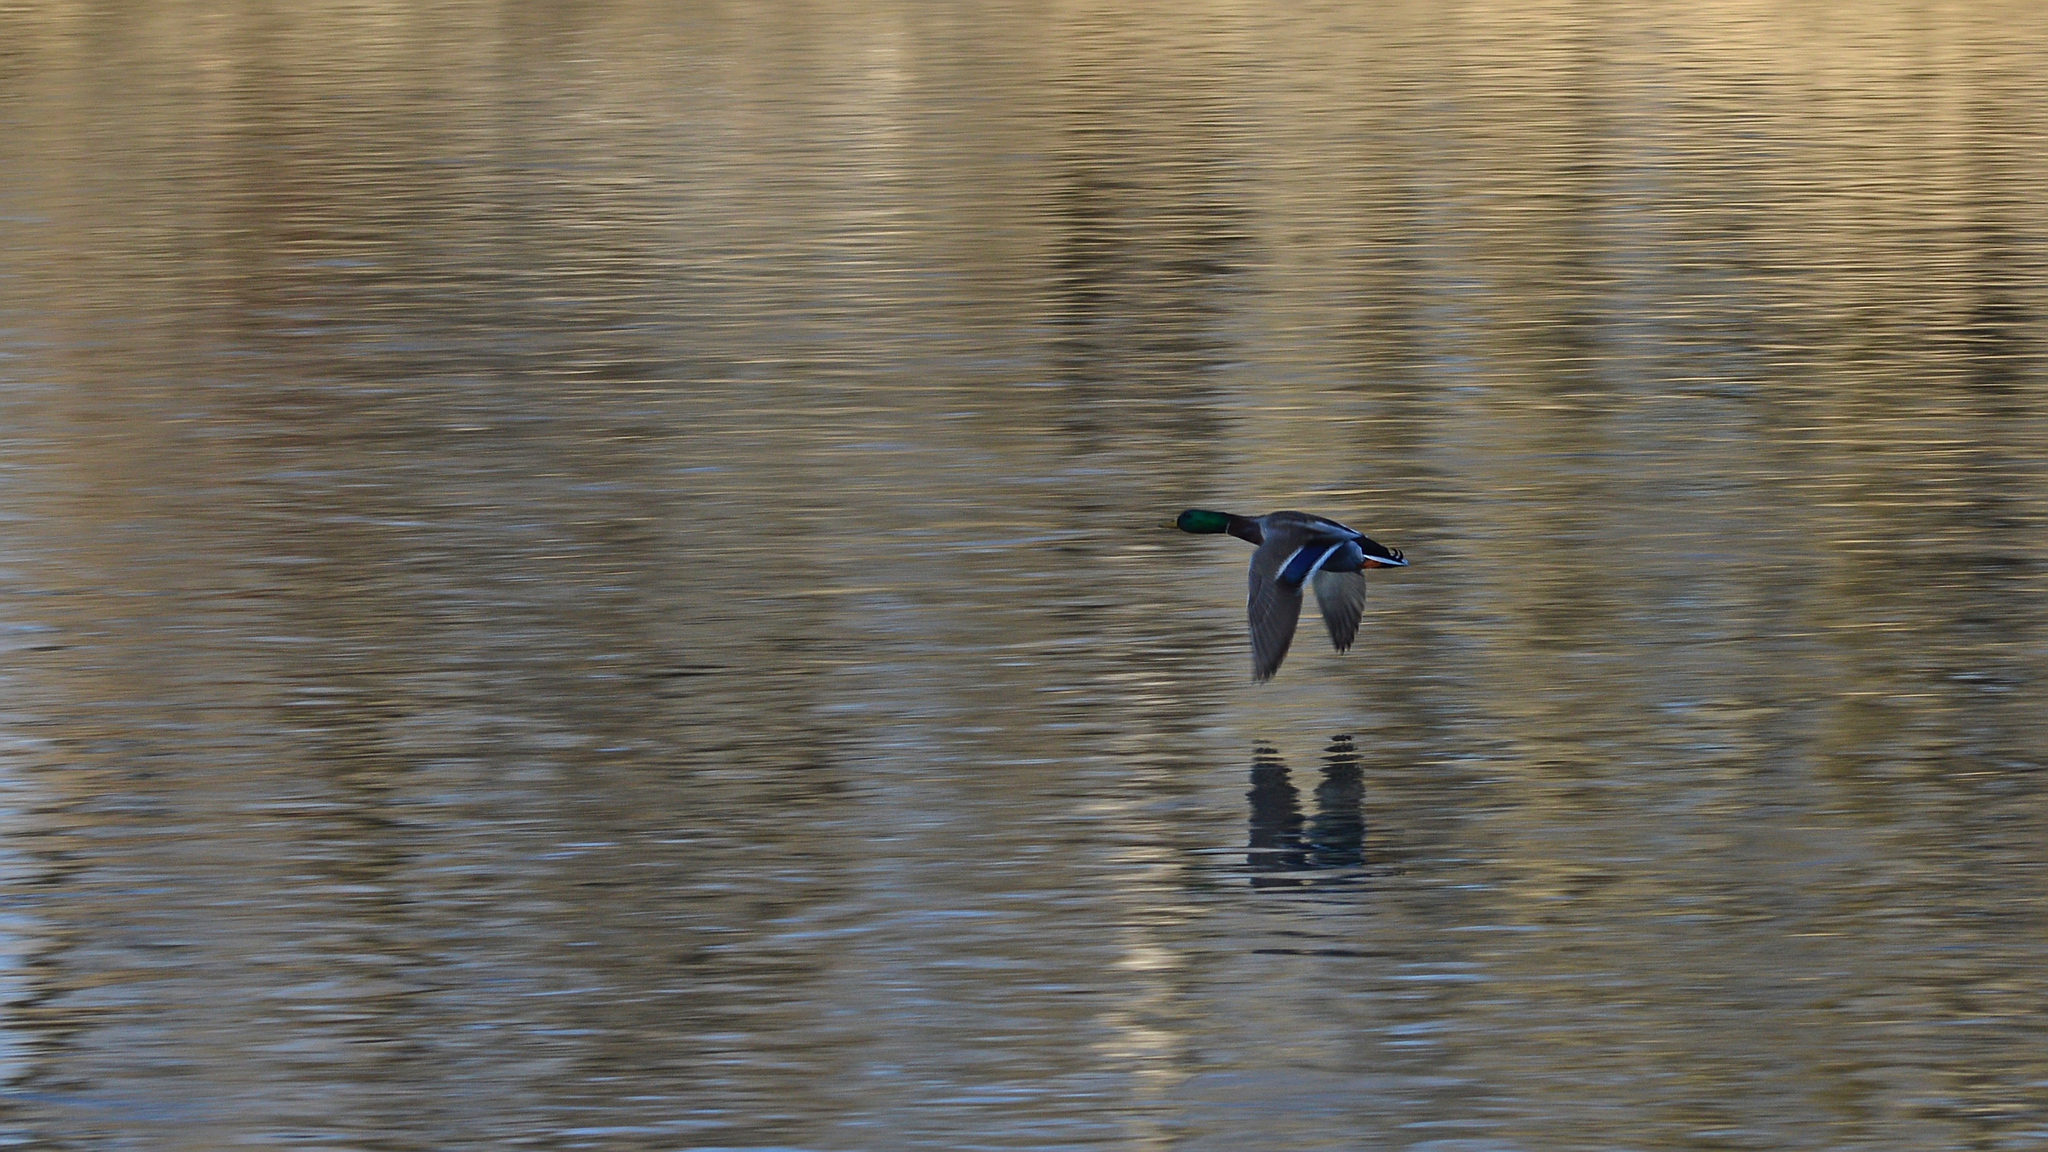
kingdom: Animalia
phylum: Chordata
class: Aves
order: Anseriformes
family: Anatidae
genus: Anas
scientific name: Anas platyrhynchos
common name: Mallard
